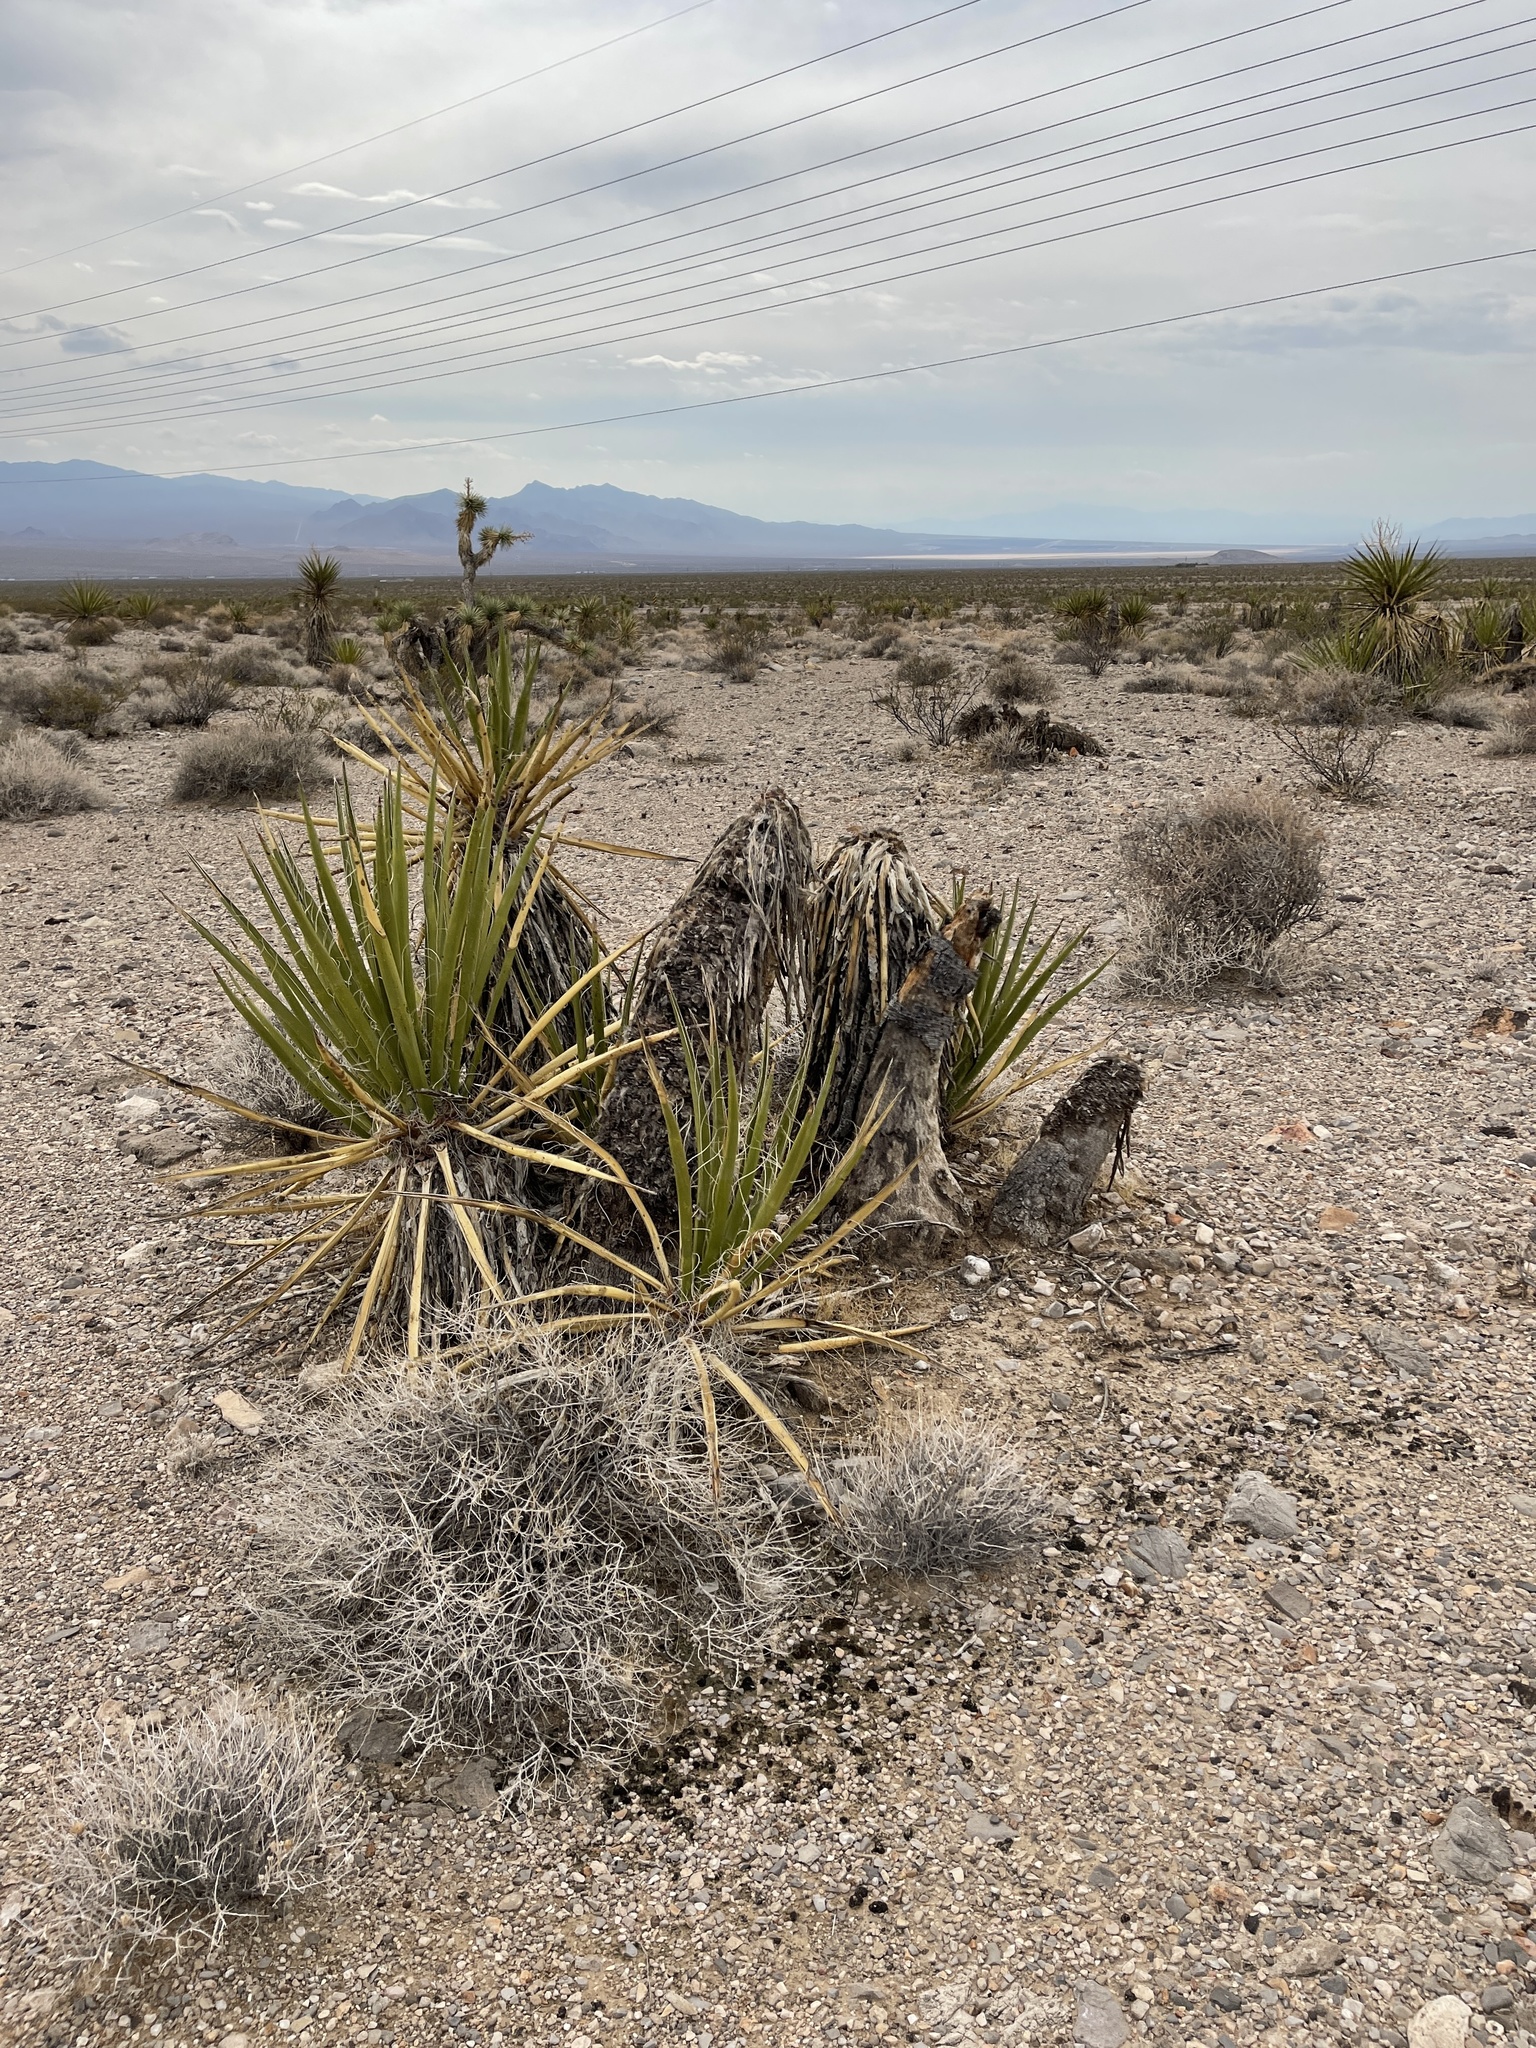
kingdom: Plantae
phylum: Tracheophyta
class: Liliopsida
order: Asparagales
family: Asparagaceae
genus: Yucca
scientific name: Yucca schidigera
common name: Mojave yucca
